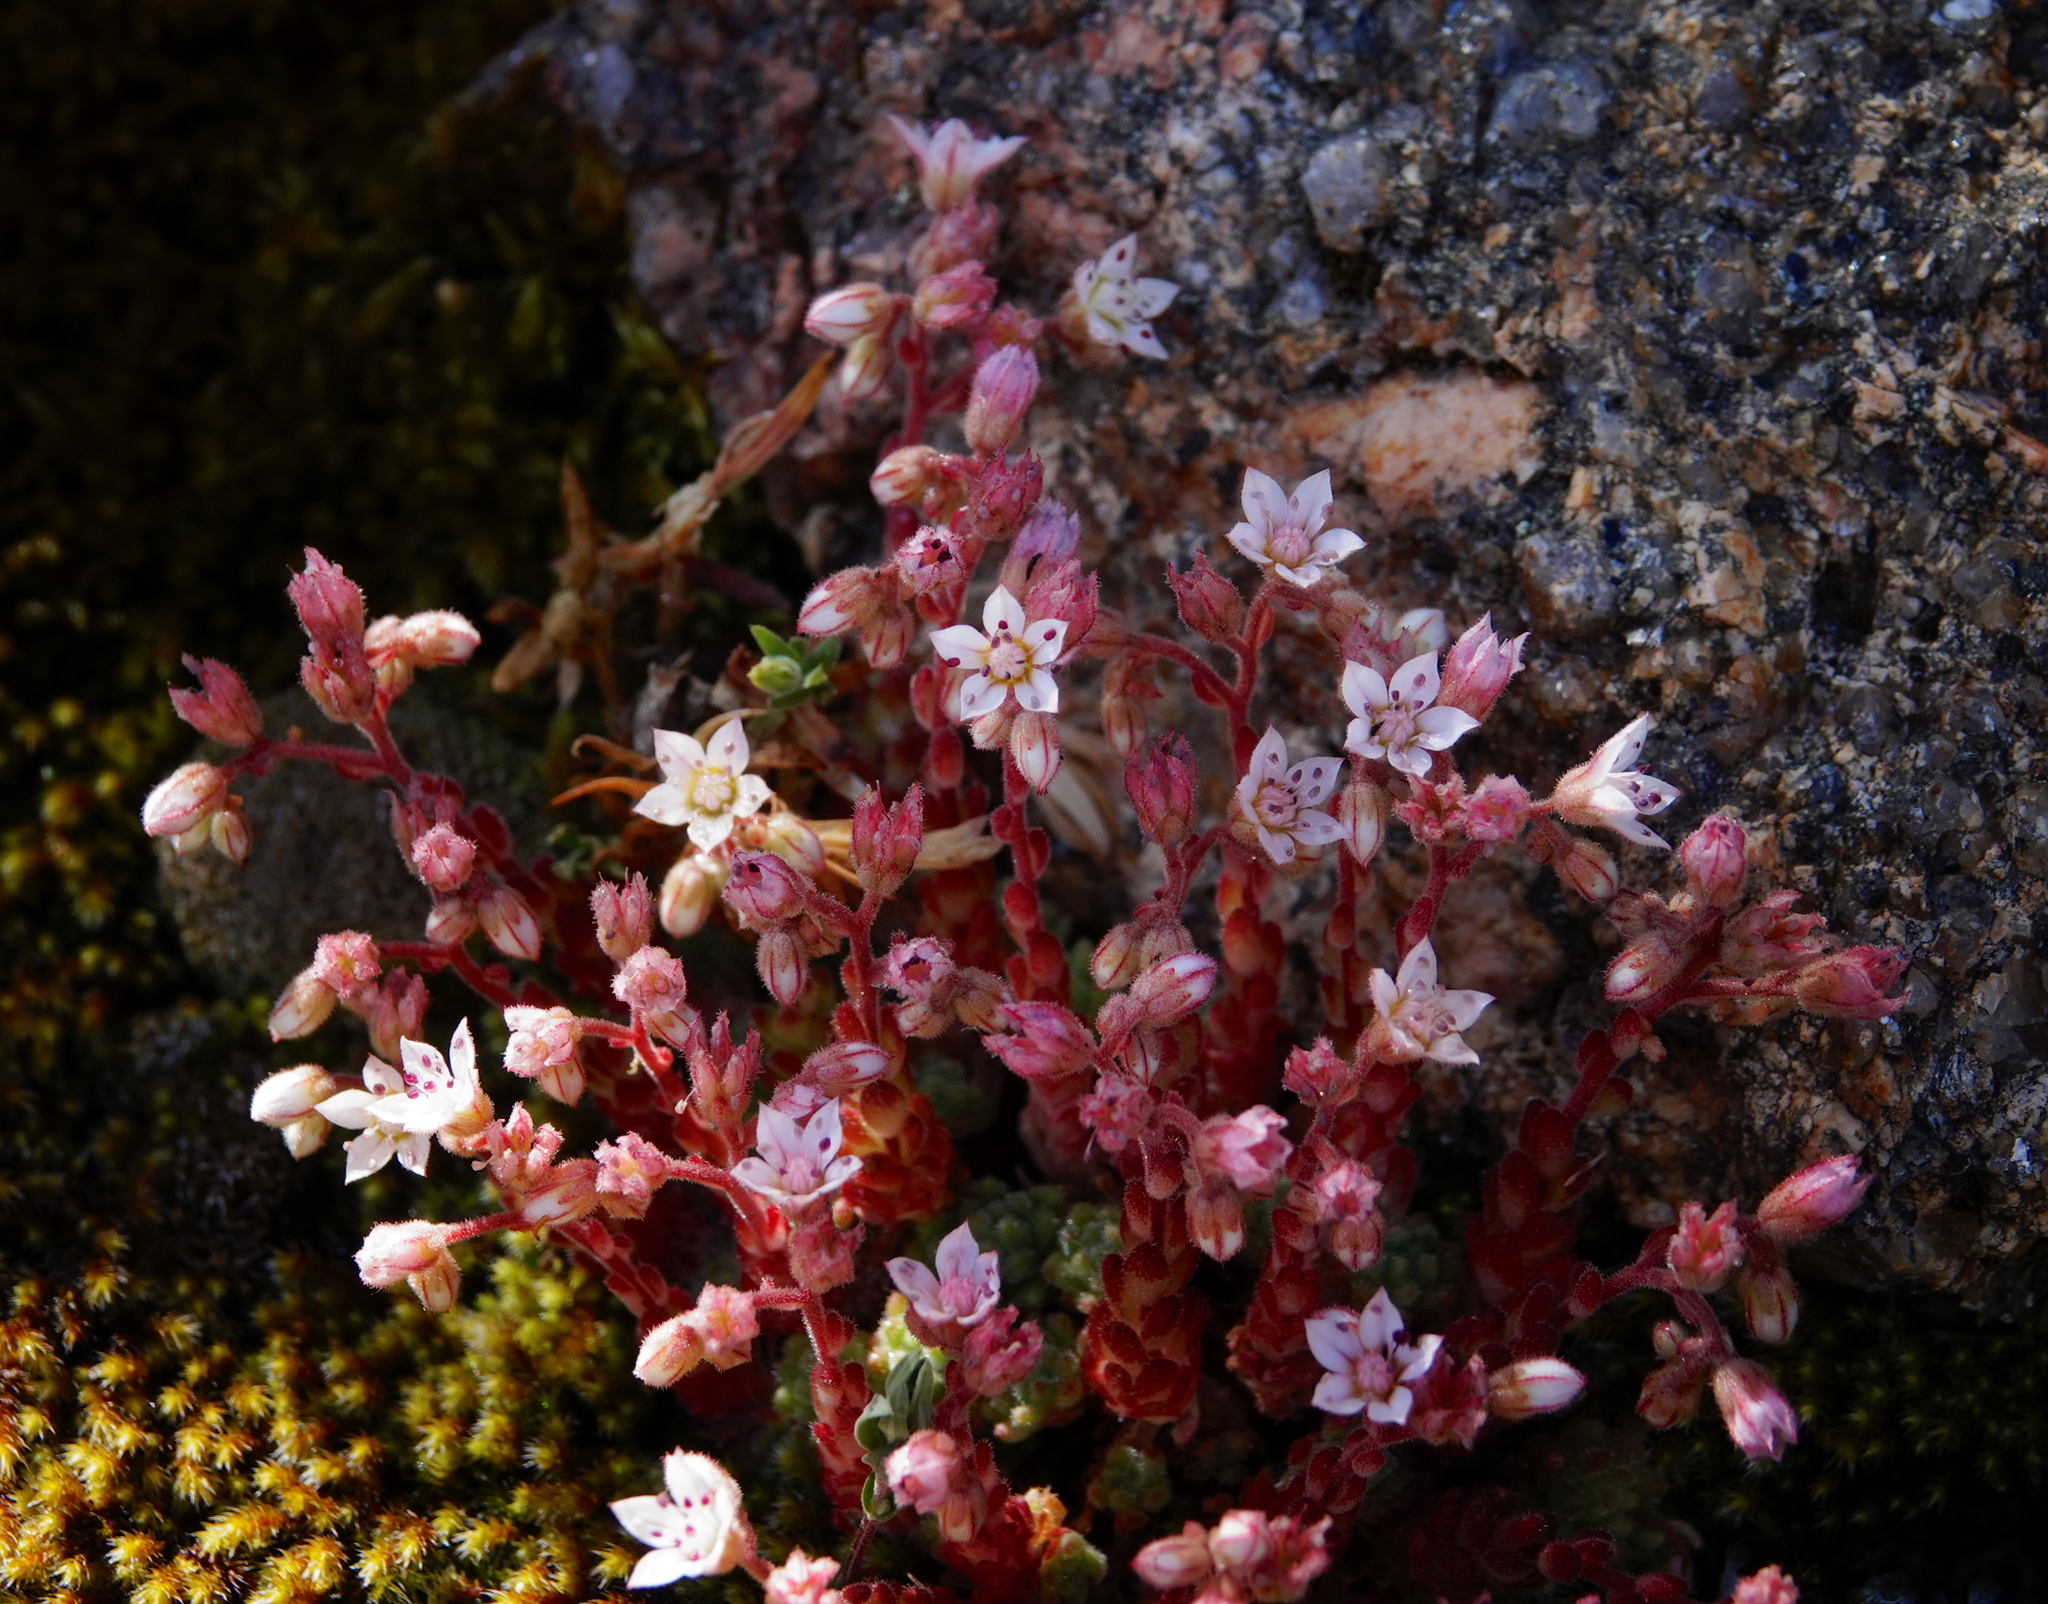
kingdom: Plantae
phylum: Tracheophyta
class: Magnoliopsida
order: Saxifragales
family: Crassulaceae
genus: Sedum
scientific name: Sedum hirsutum
